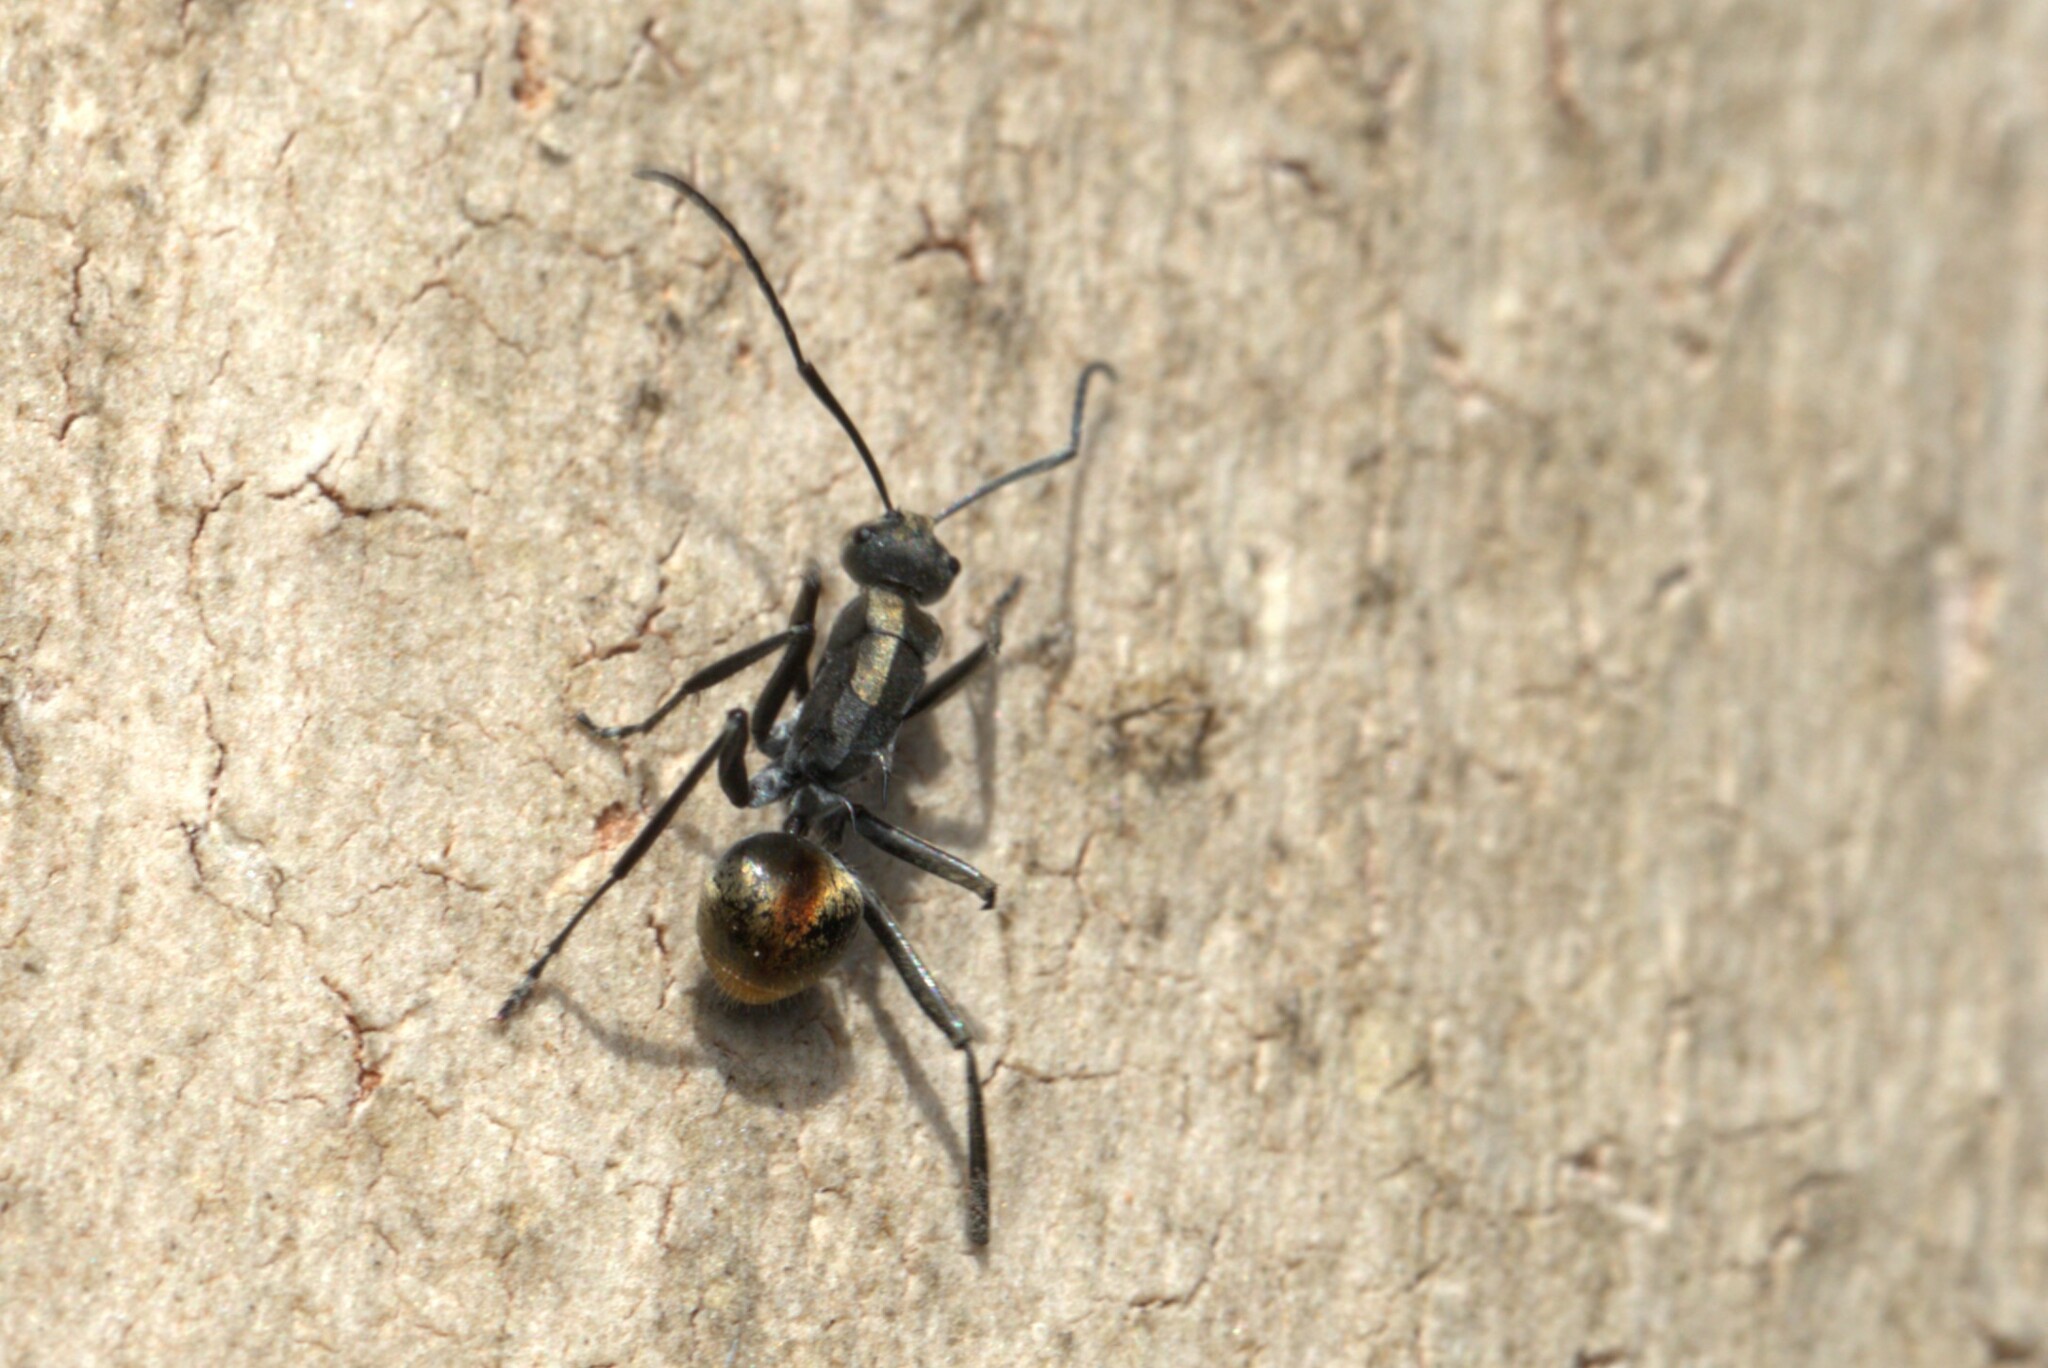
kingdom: Animalia
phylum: Arthropoda
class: Insecta
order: Hymenoptera
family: Formicidae
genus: Polyrhachis
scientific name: Polyrhachis
